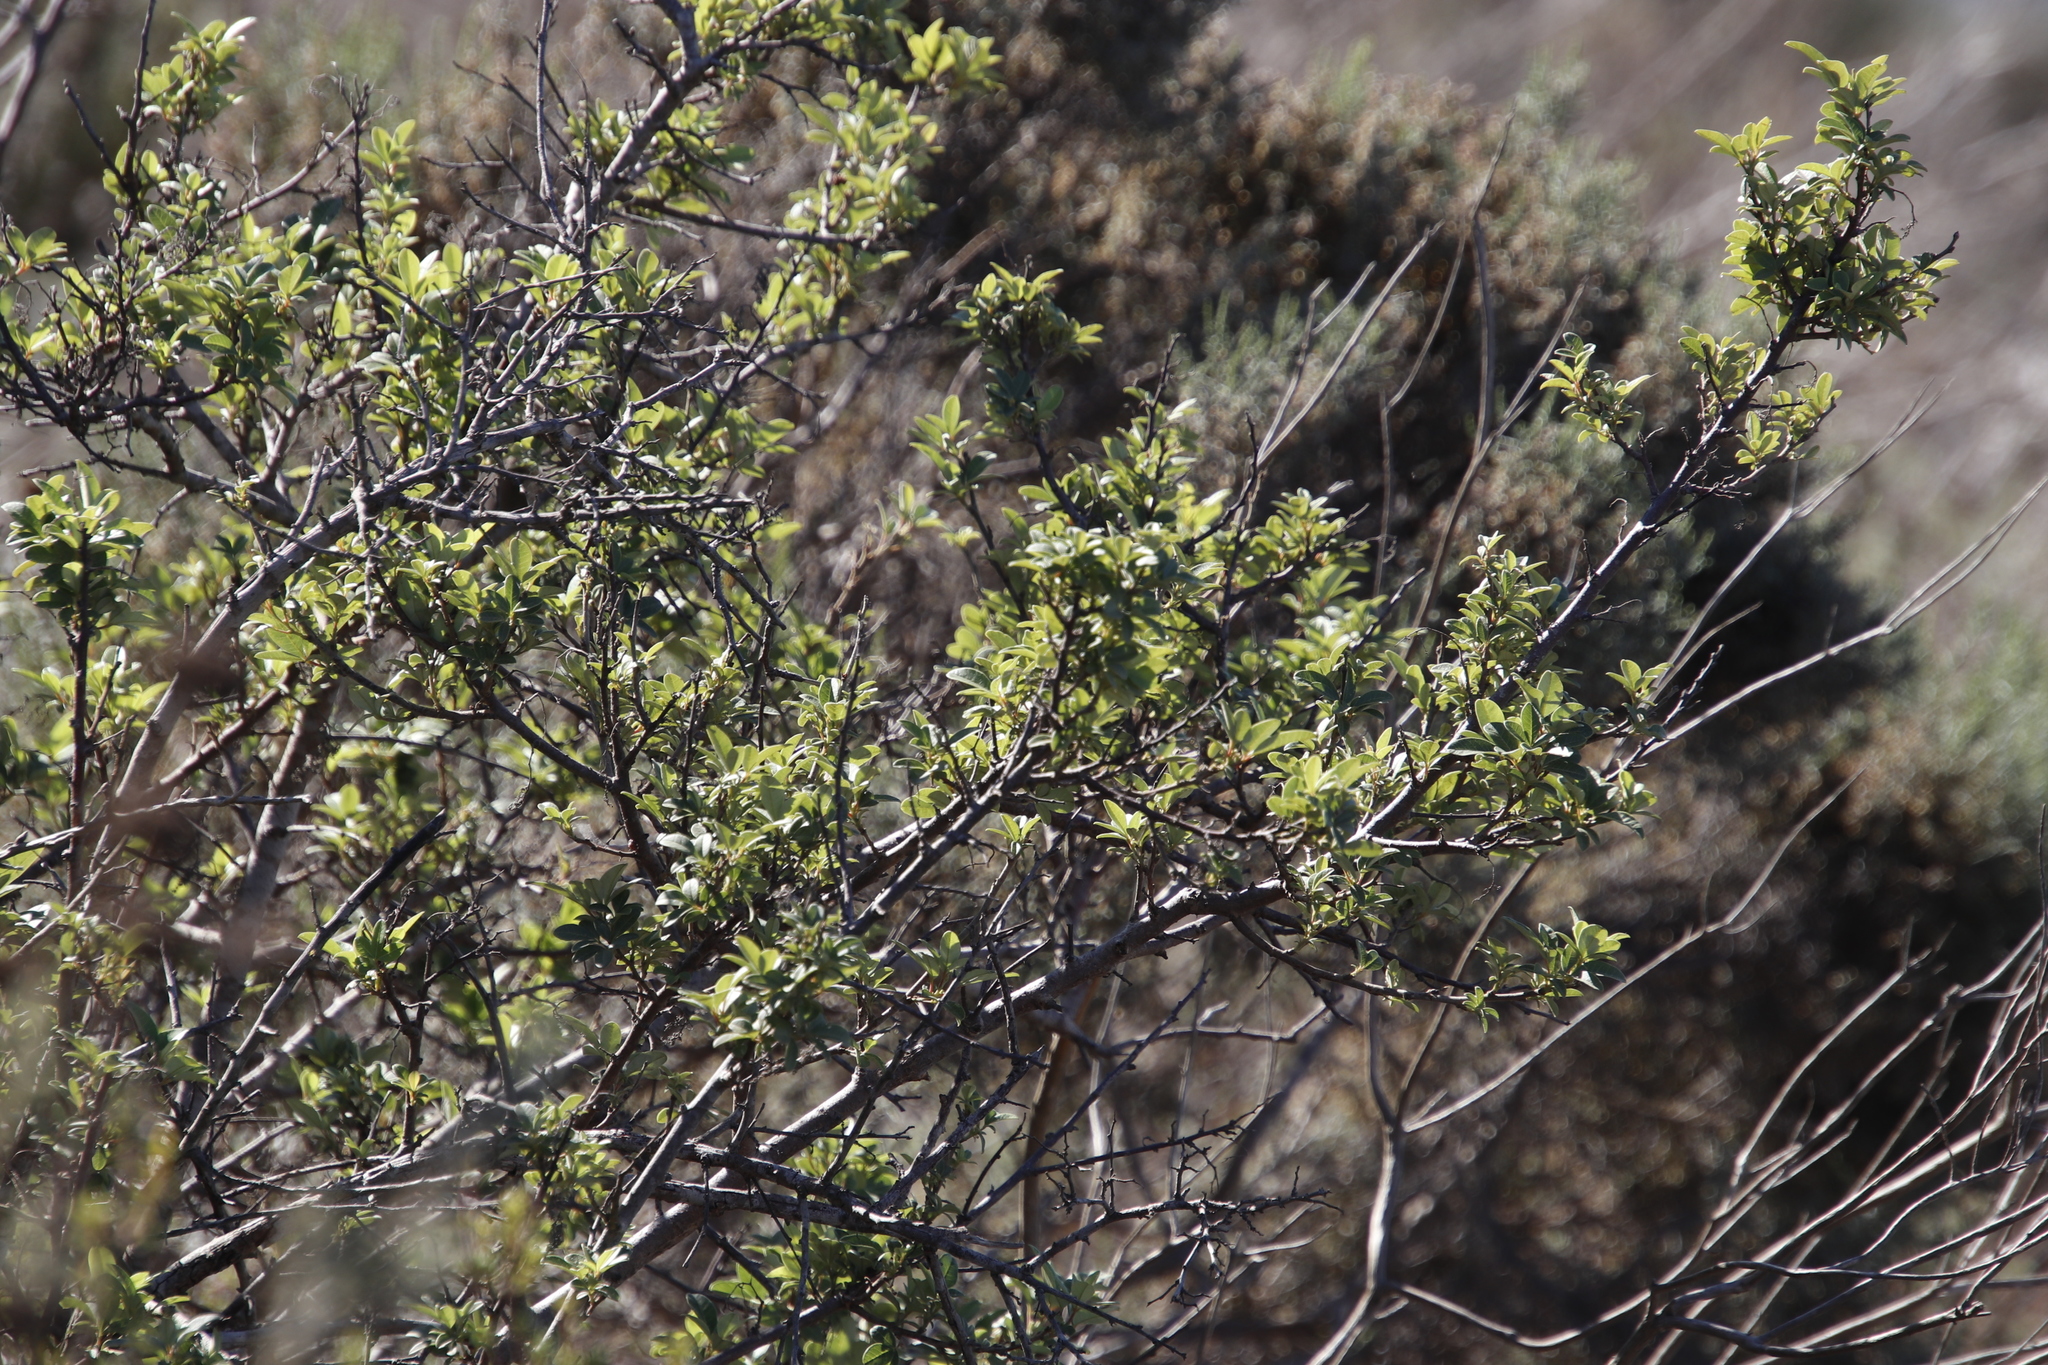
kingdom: Plantae
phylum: Tracheophyta
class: Magnoliopsida
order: Sapindales
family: Anacardiaceae
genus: Searsia
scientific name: Searsia tomentosa
